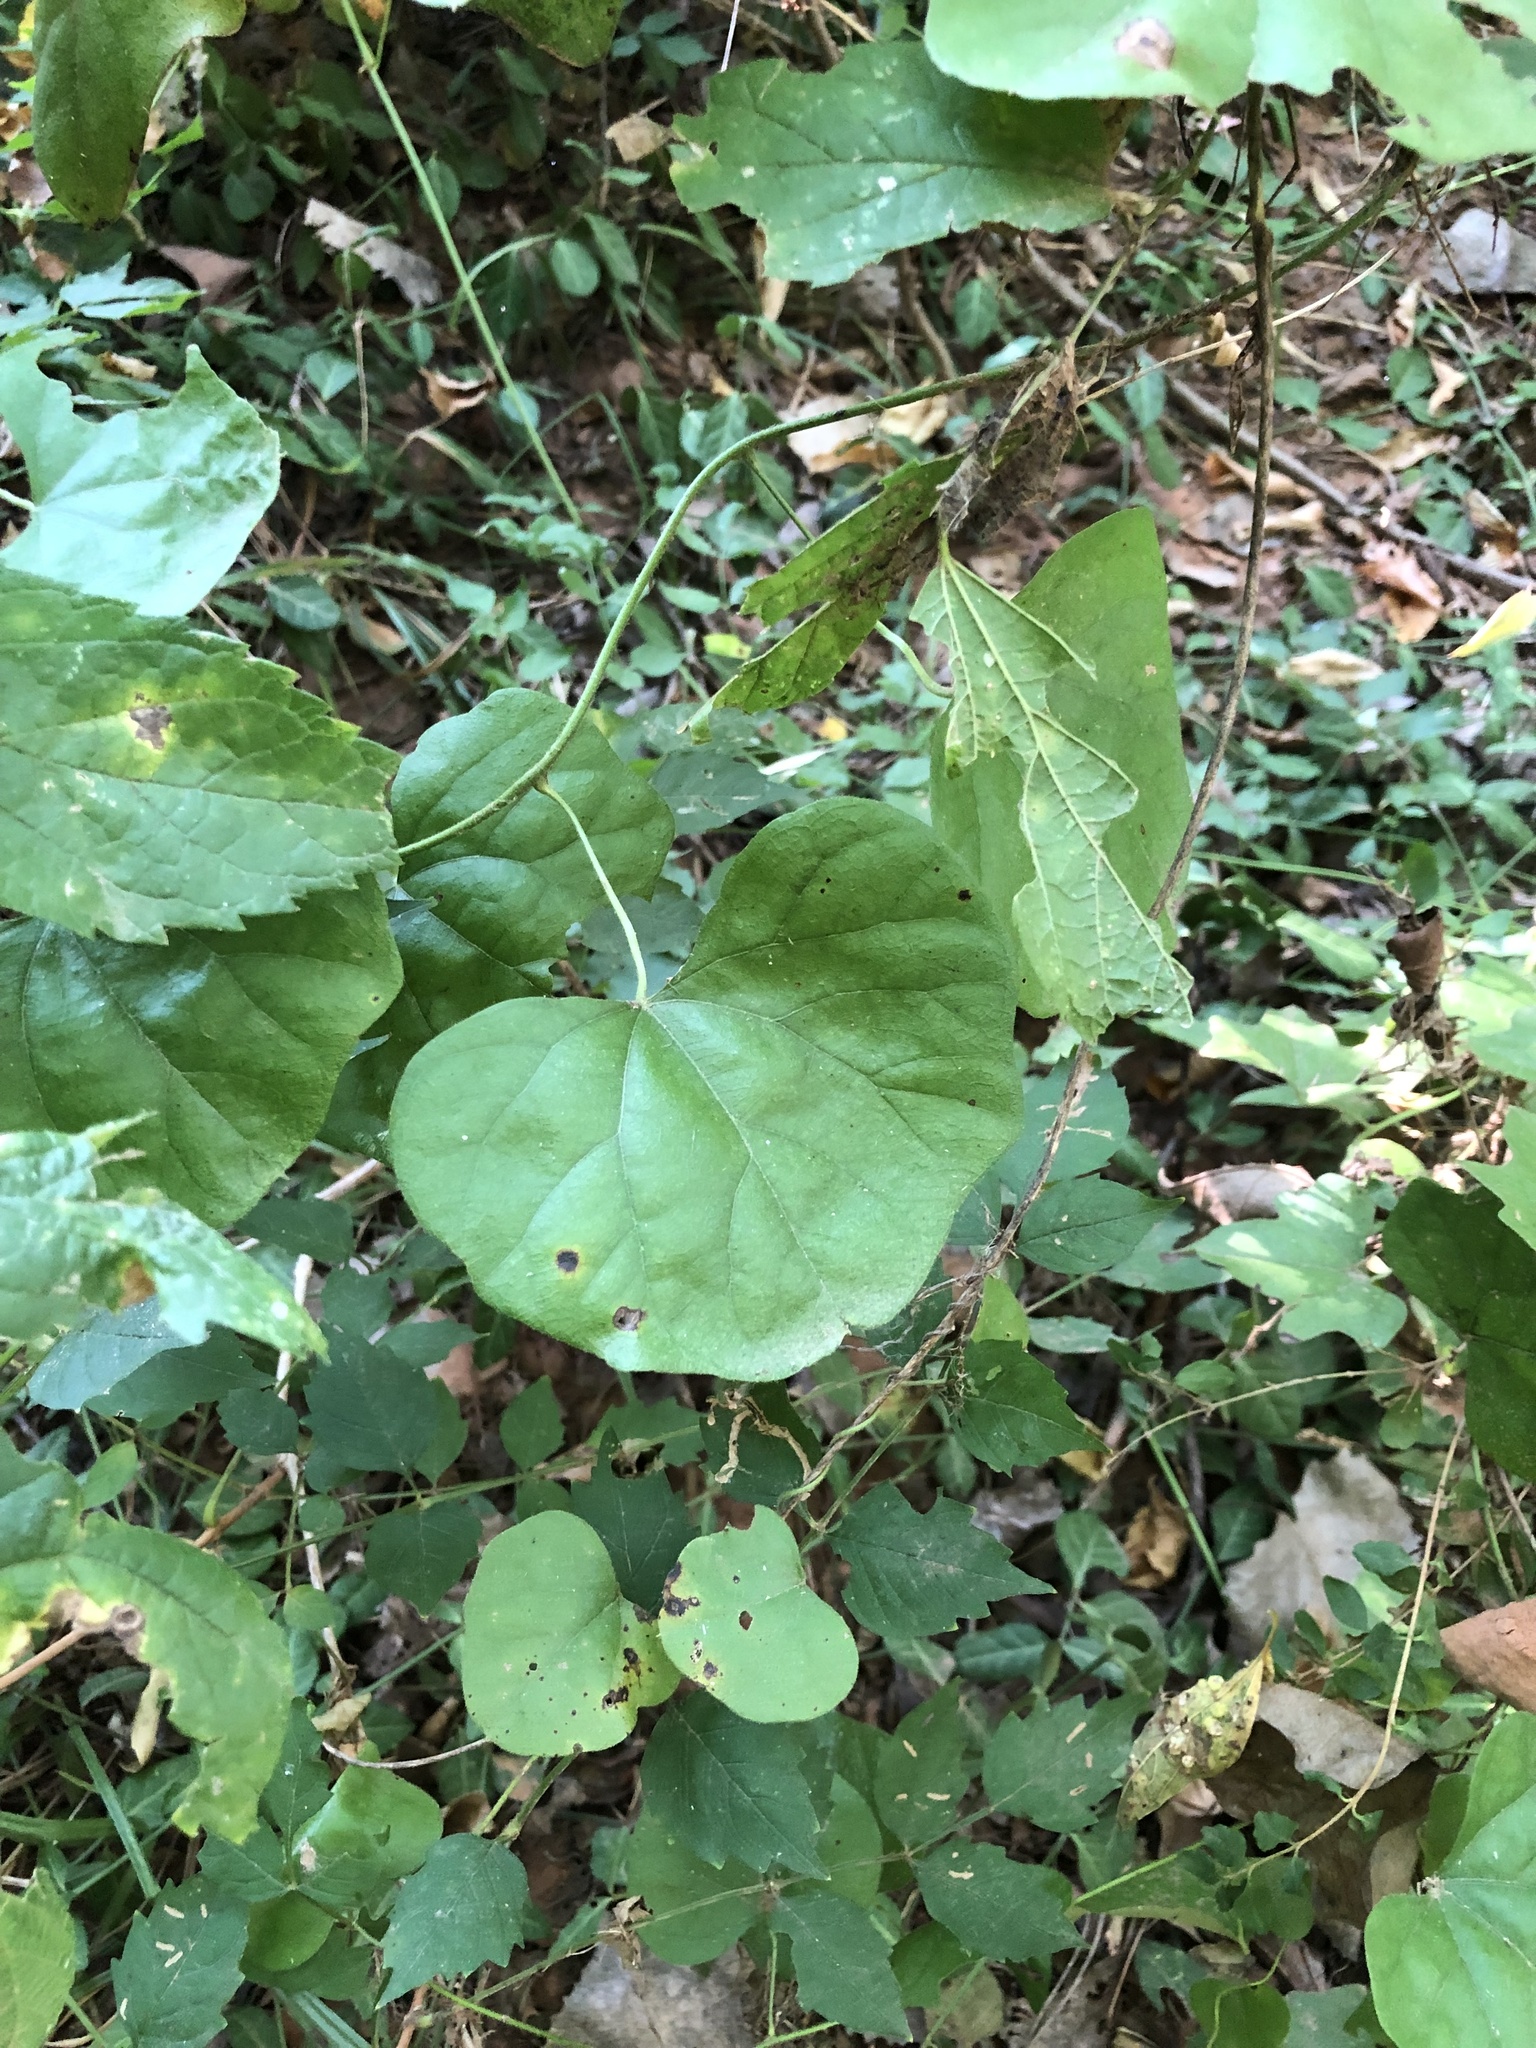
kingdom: Plantae
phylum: Tracheophyta
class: Magnoliopsida
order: Ranunculales
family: Menispermaceae
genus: Cocculus
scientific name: Cocculus carolinus
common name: Carolina moonseed
